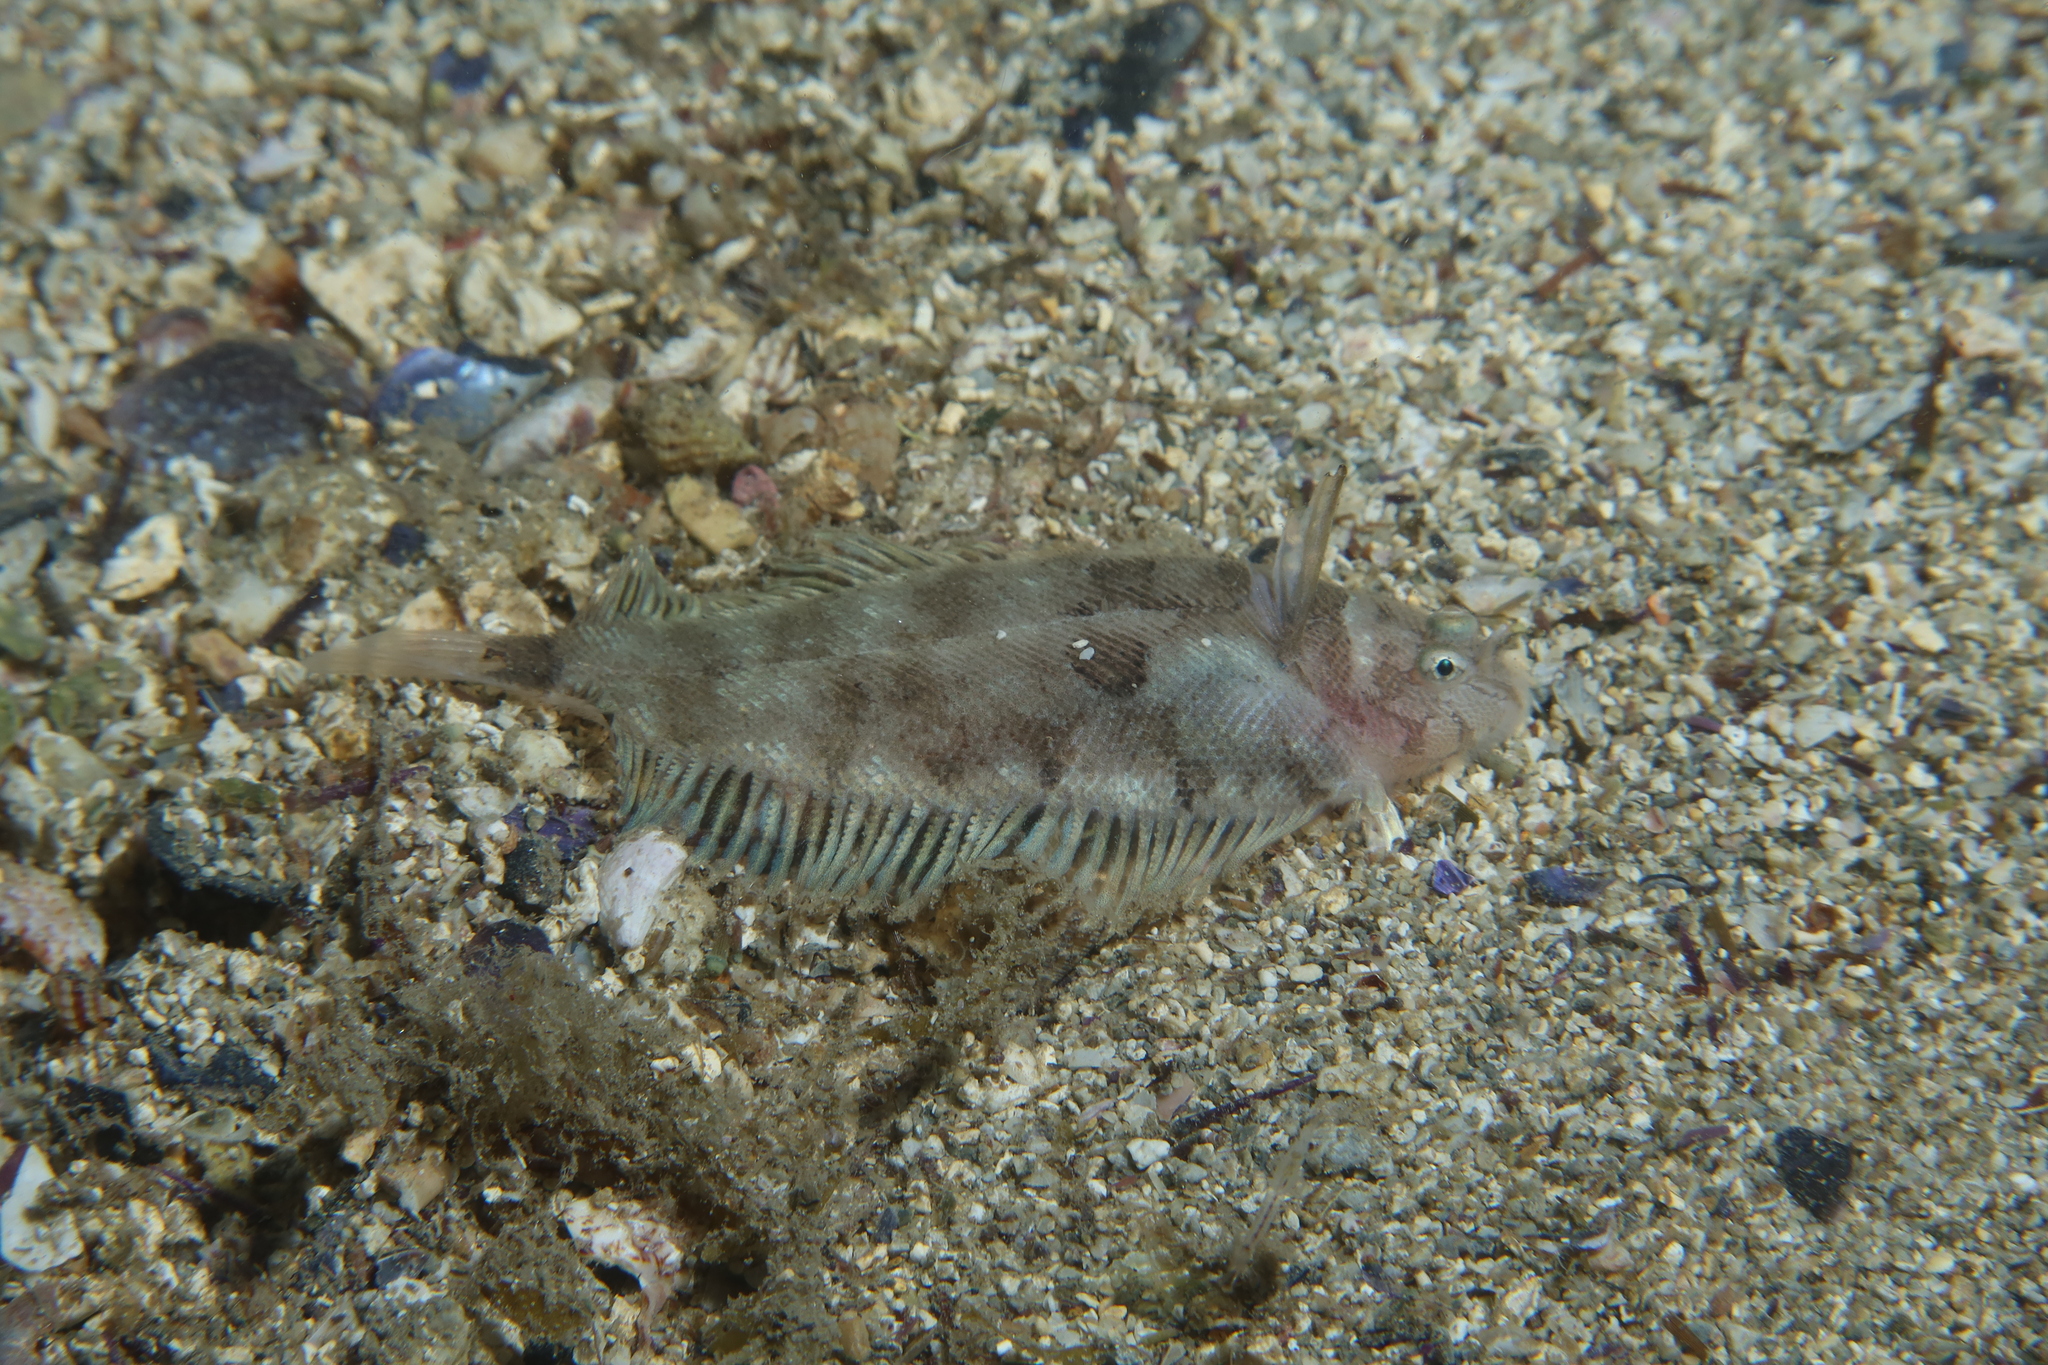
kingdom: Animalia
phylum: Chordata
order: Pleuronectiformes
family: Soleidae
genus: Monochirus
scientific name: Monochirus hispidus
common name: Whiskered sole
